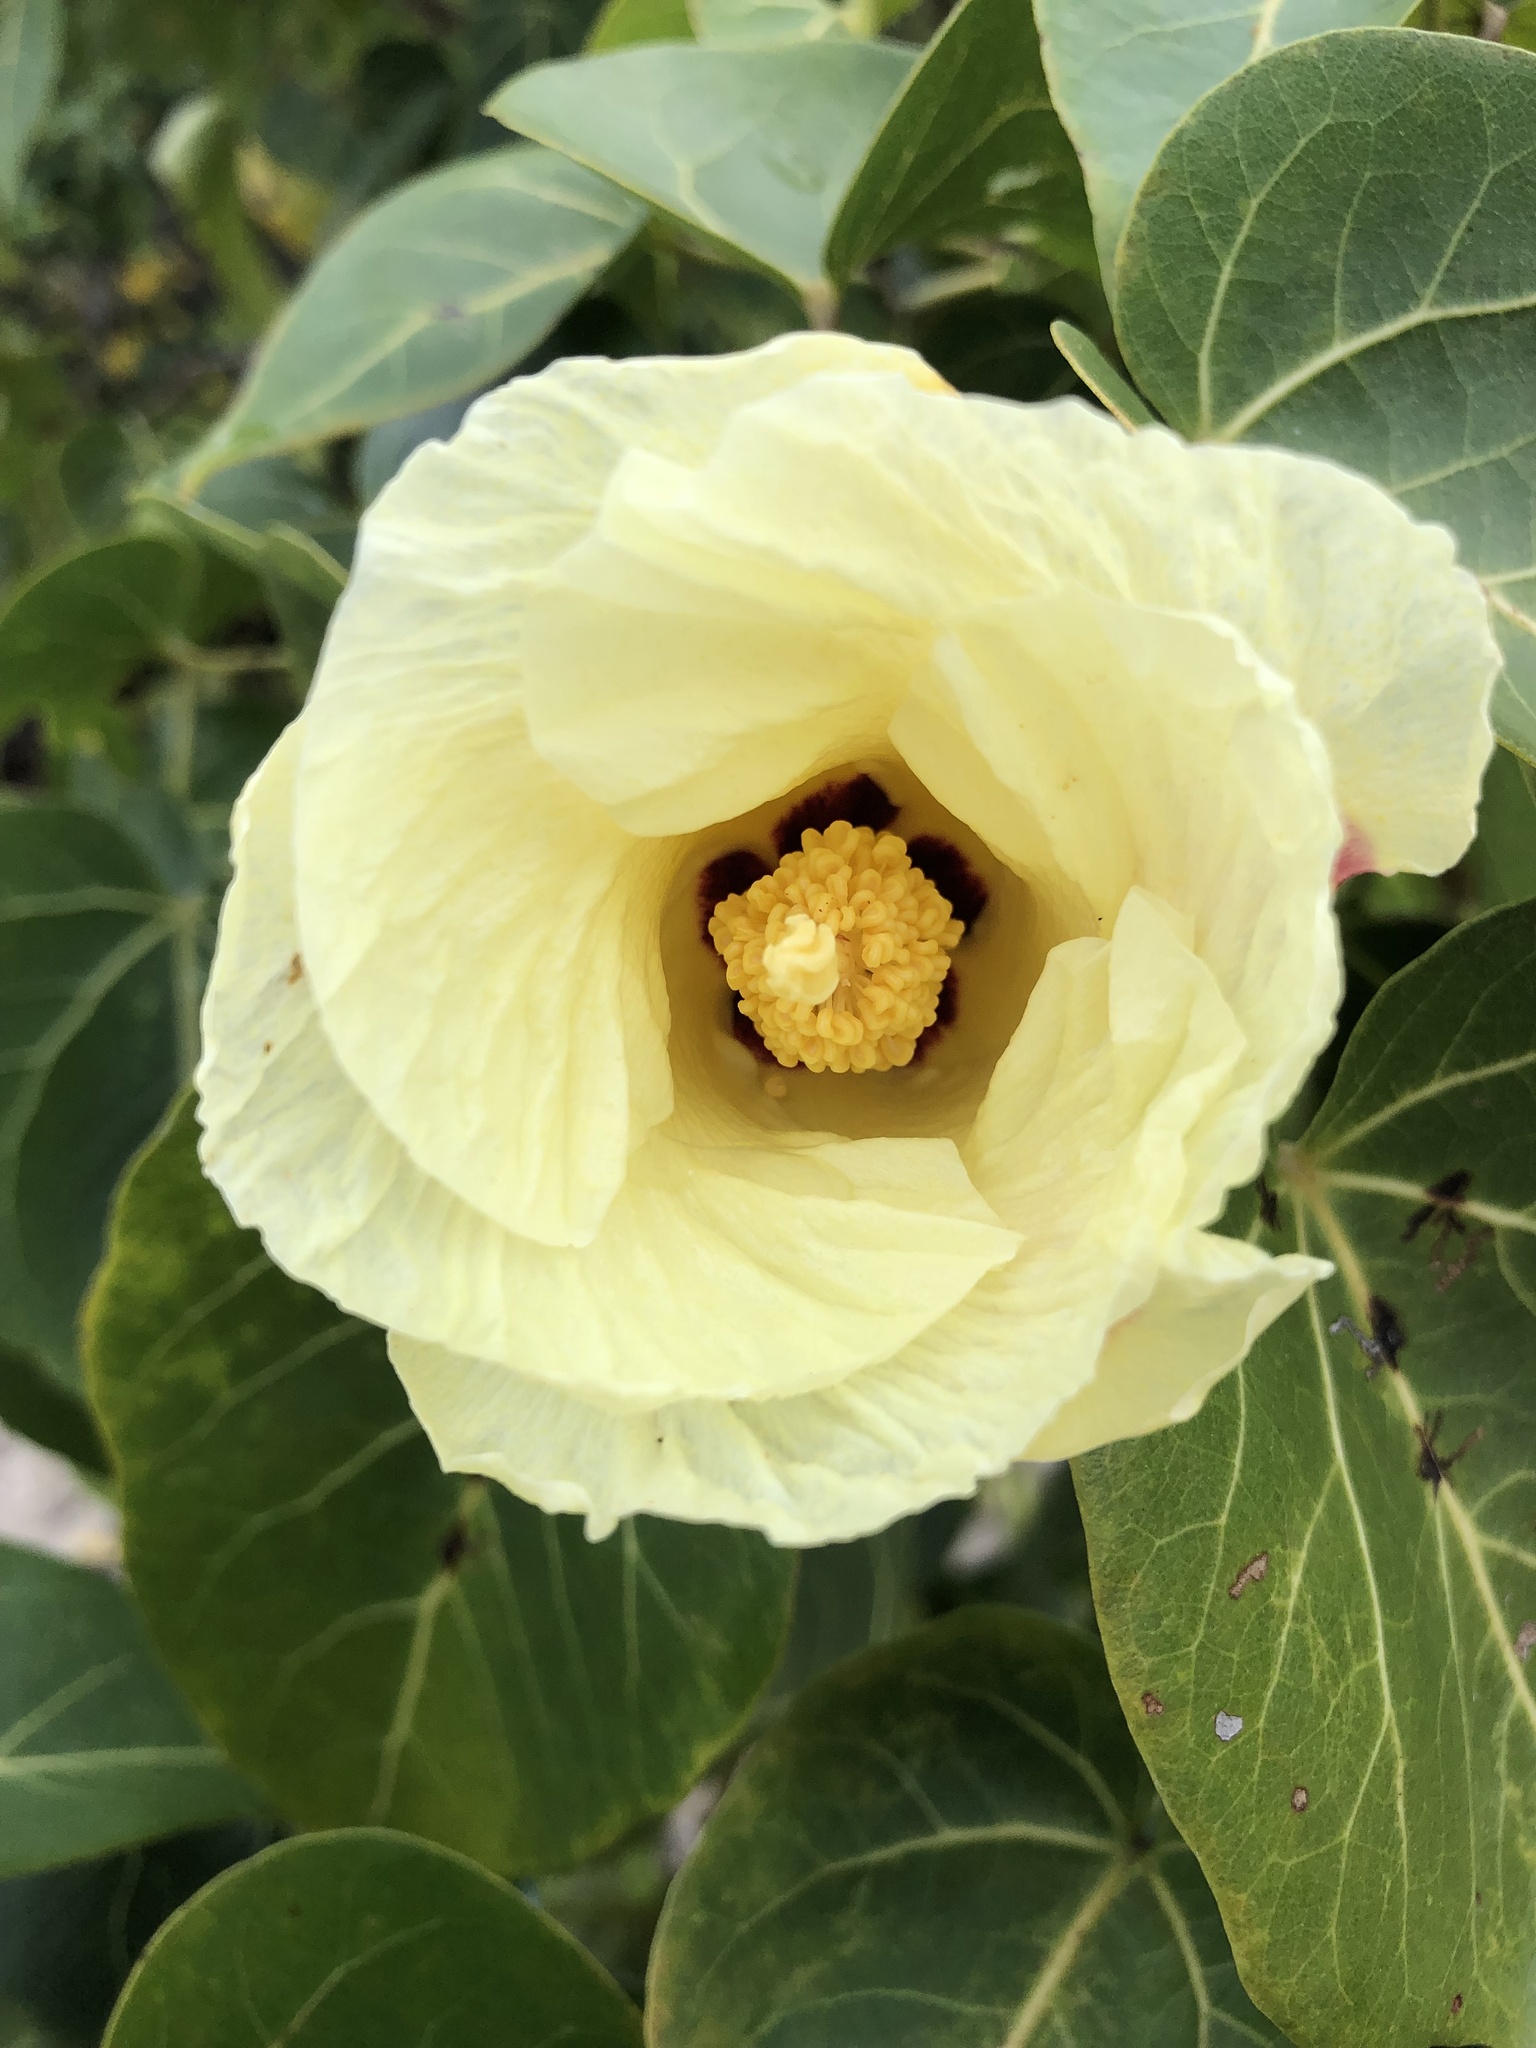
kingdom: Plantae
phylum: Tracheophyta
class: Magnoliopsida
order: Malvales
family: Malvaceae
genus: Thespesia
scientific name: Thespesia populnea
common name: Seaside mahoe
